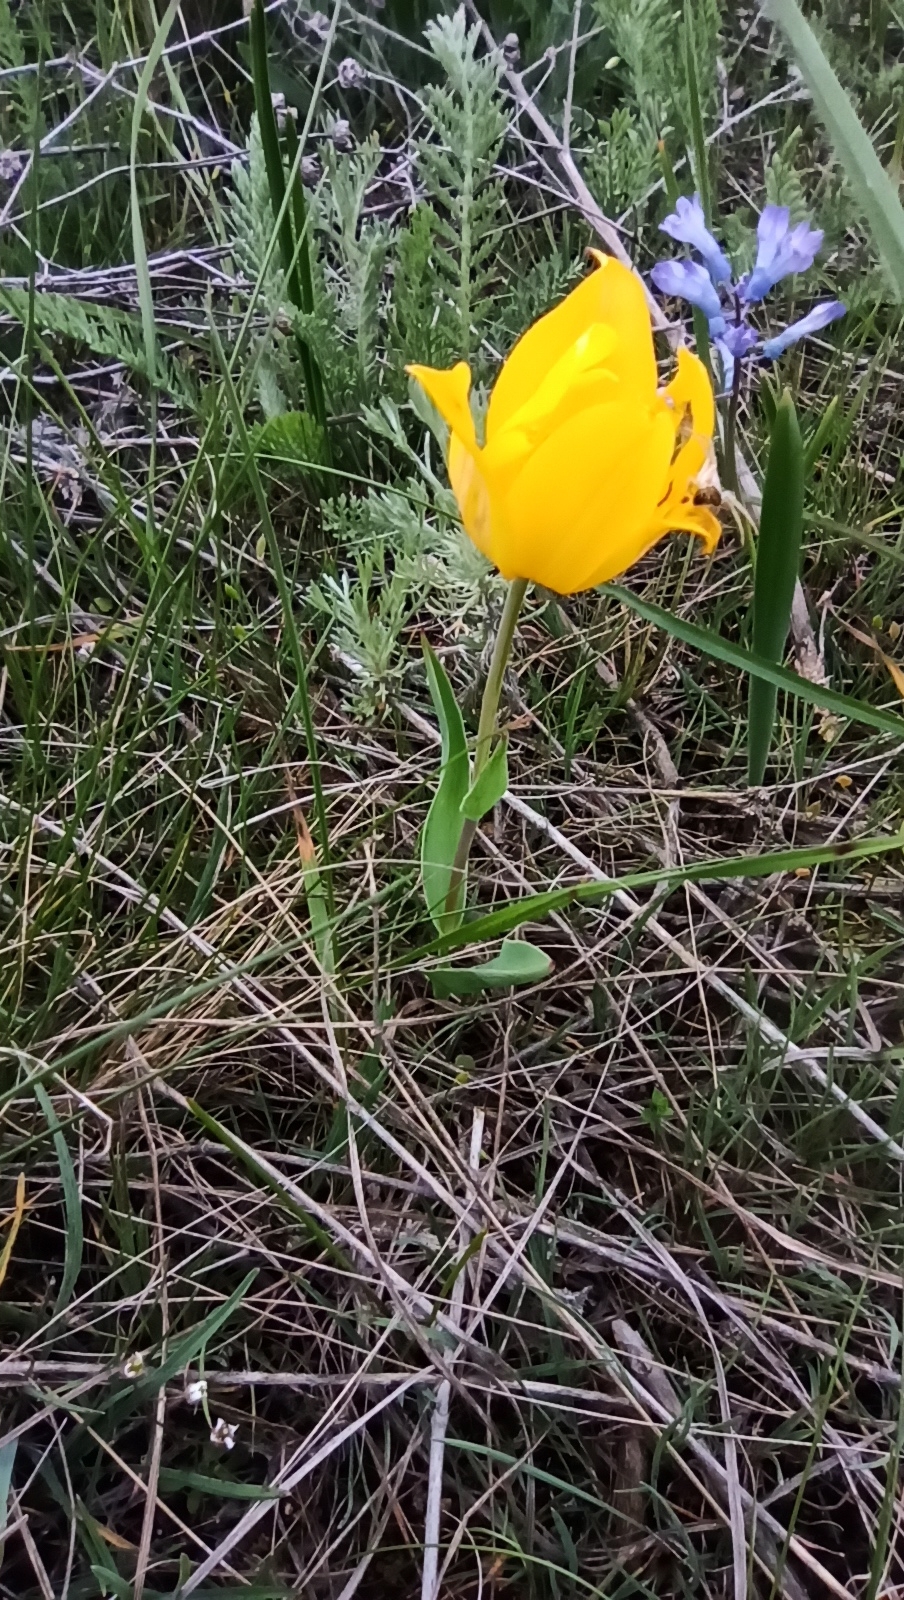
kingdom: Plantae
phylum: Tracheophyta
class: Liliopsida
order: Liliales
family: Liliaceae
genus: Tulipa
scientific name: Tulipa suaveolens
